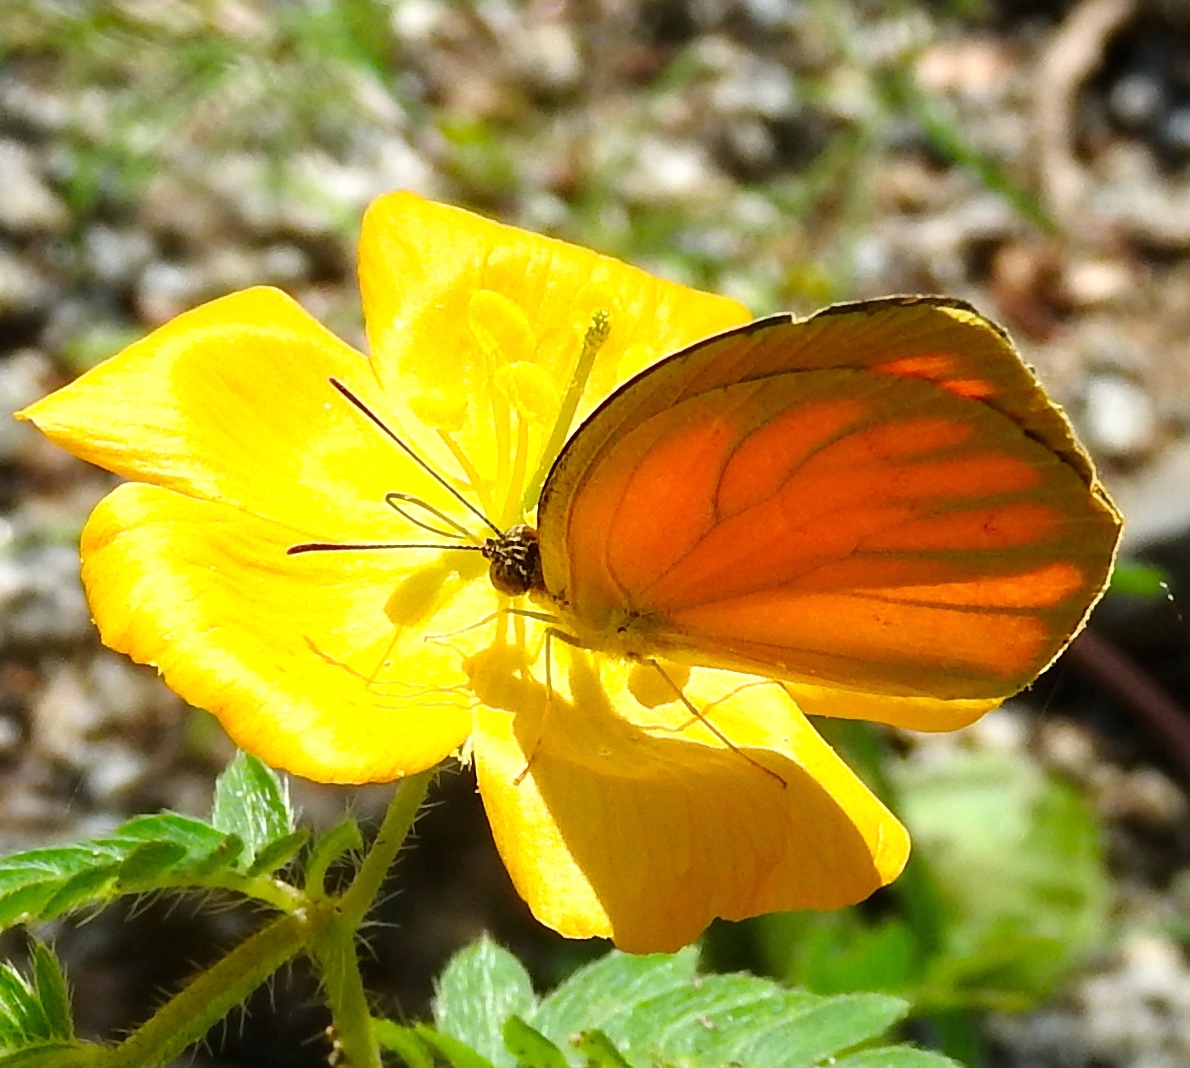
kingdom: Animalia
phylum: Arthropoda
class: Insecta
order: Lepidoptera
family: Pieridae
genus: Pyrisitia
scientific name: Pyrisitia proterpia
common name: Tailed orange
